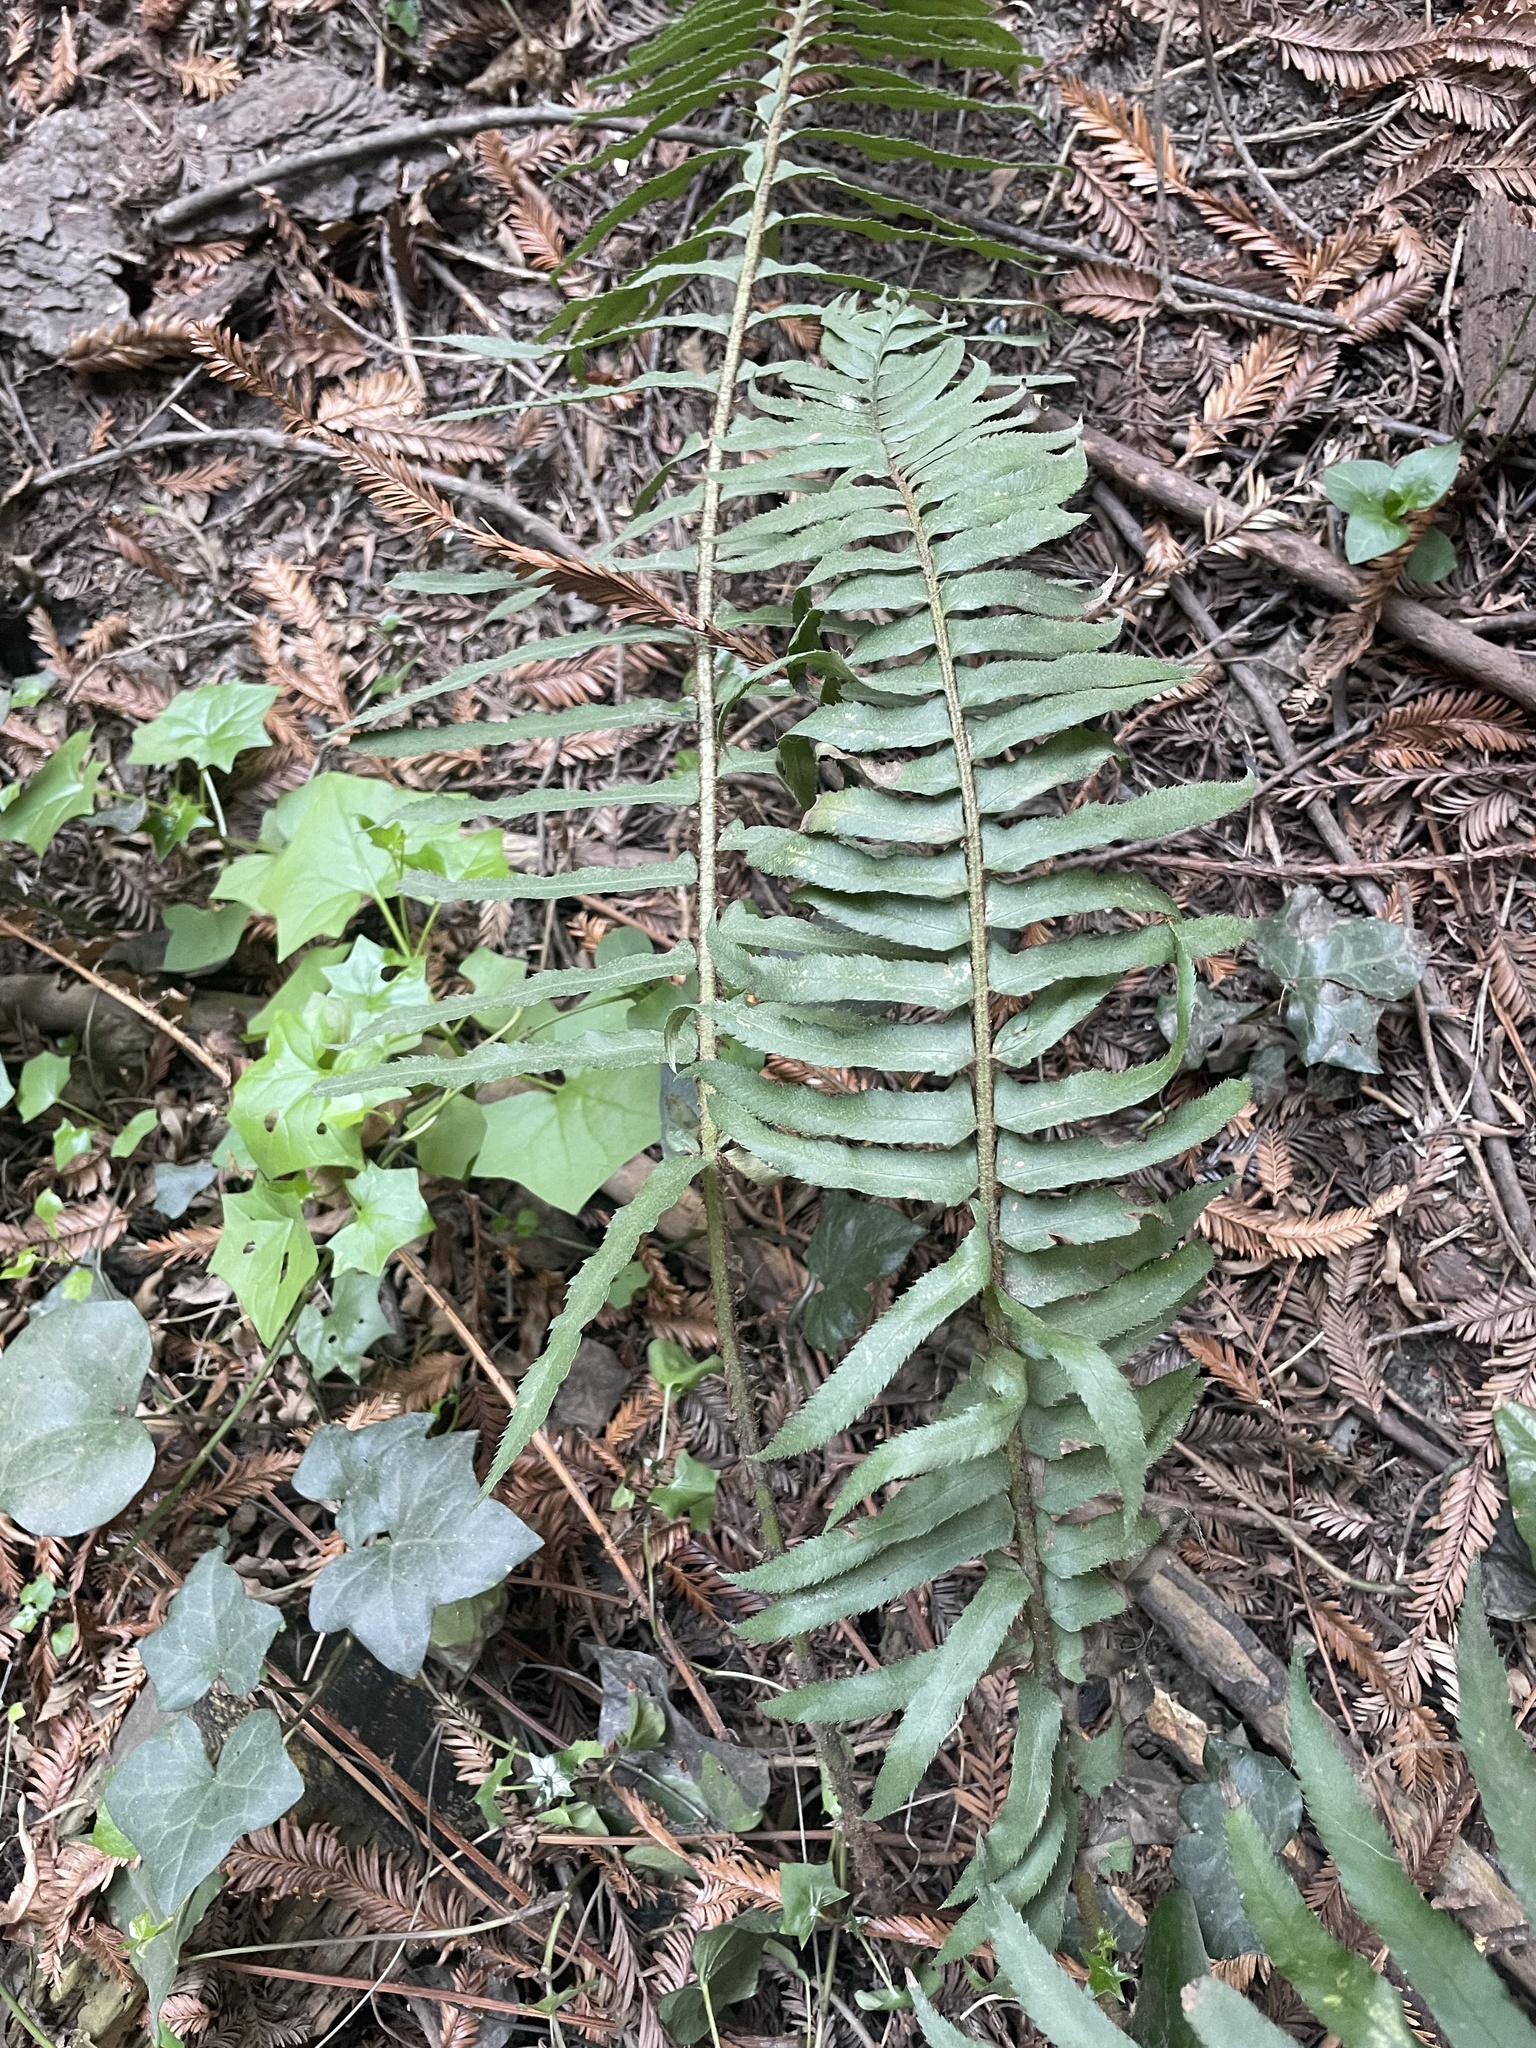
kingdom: Plantae
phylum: Tracheophyta
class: Polypodiopsida
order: Polypodiales
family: Dryopteridaceae
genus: Polystichum
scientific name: Polystichum munitum
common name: Western sword-fern
